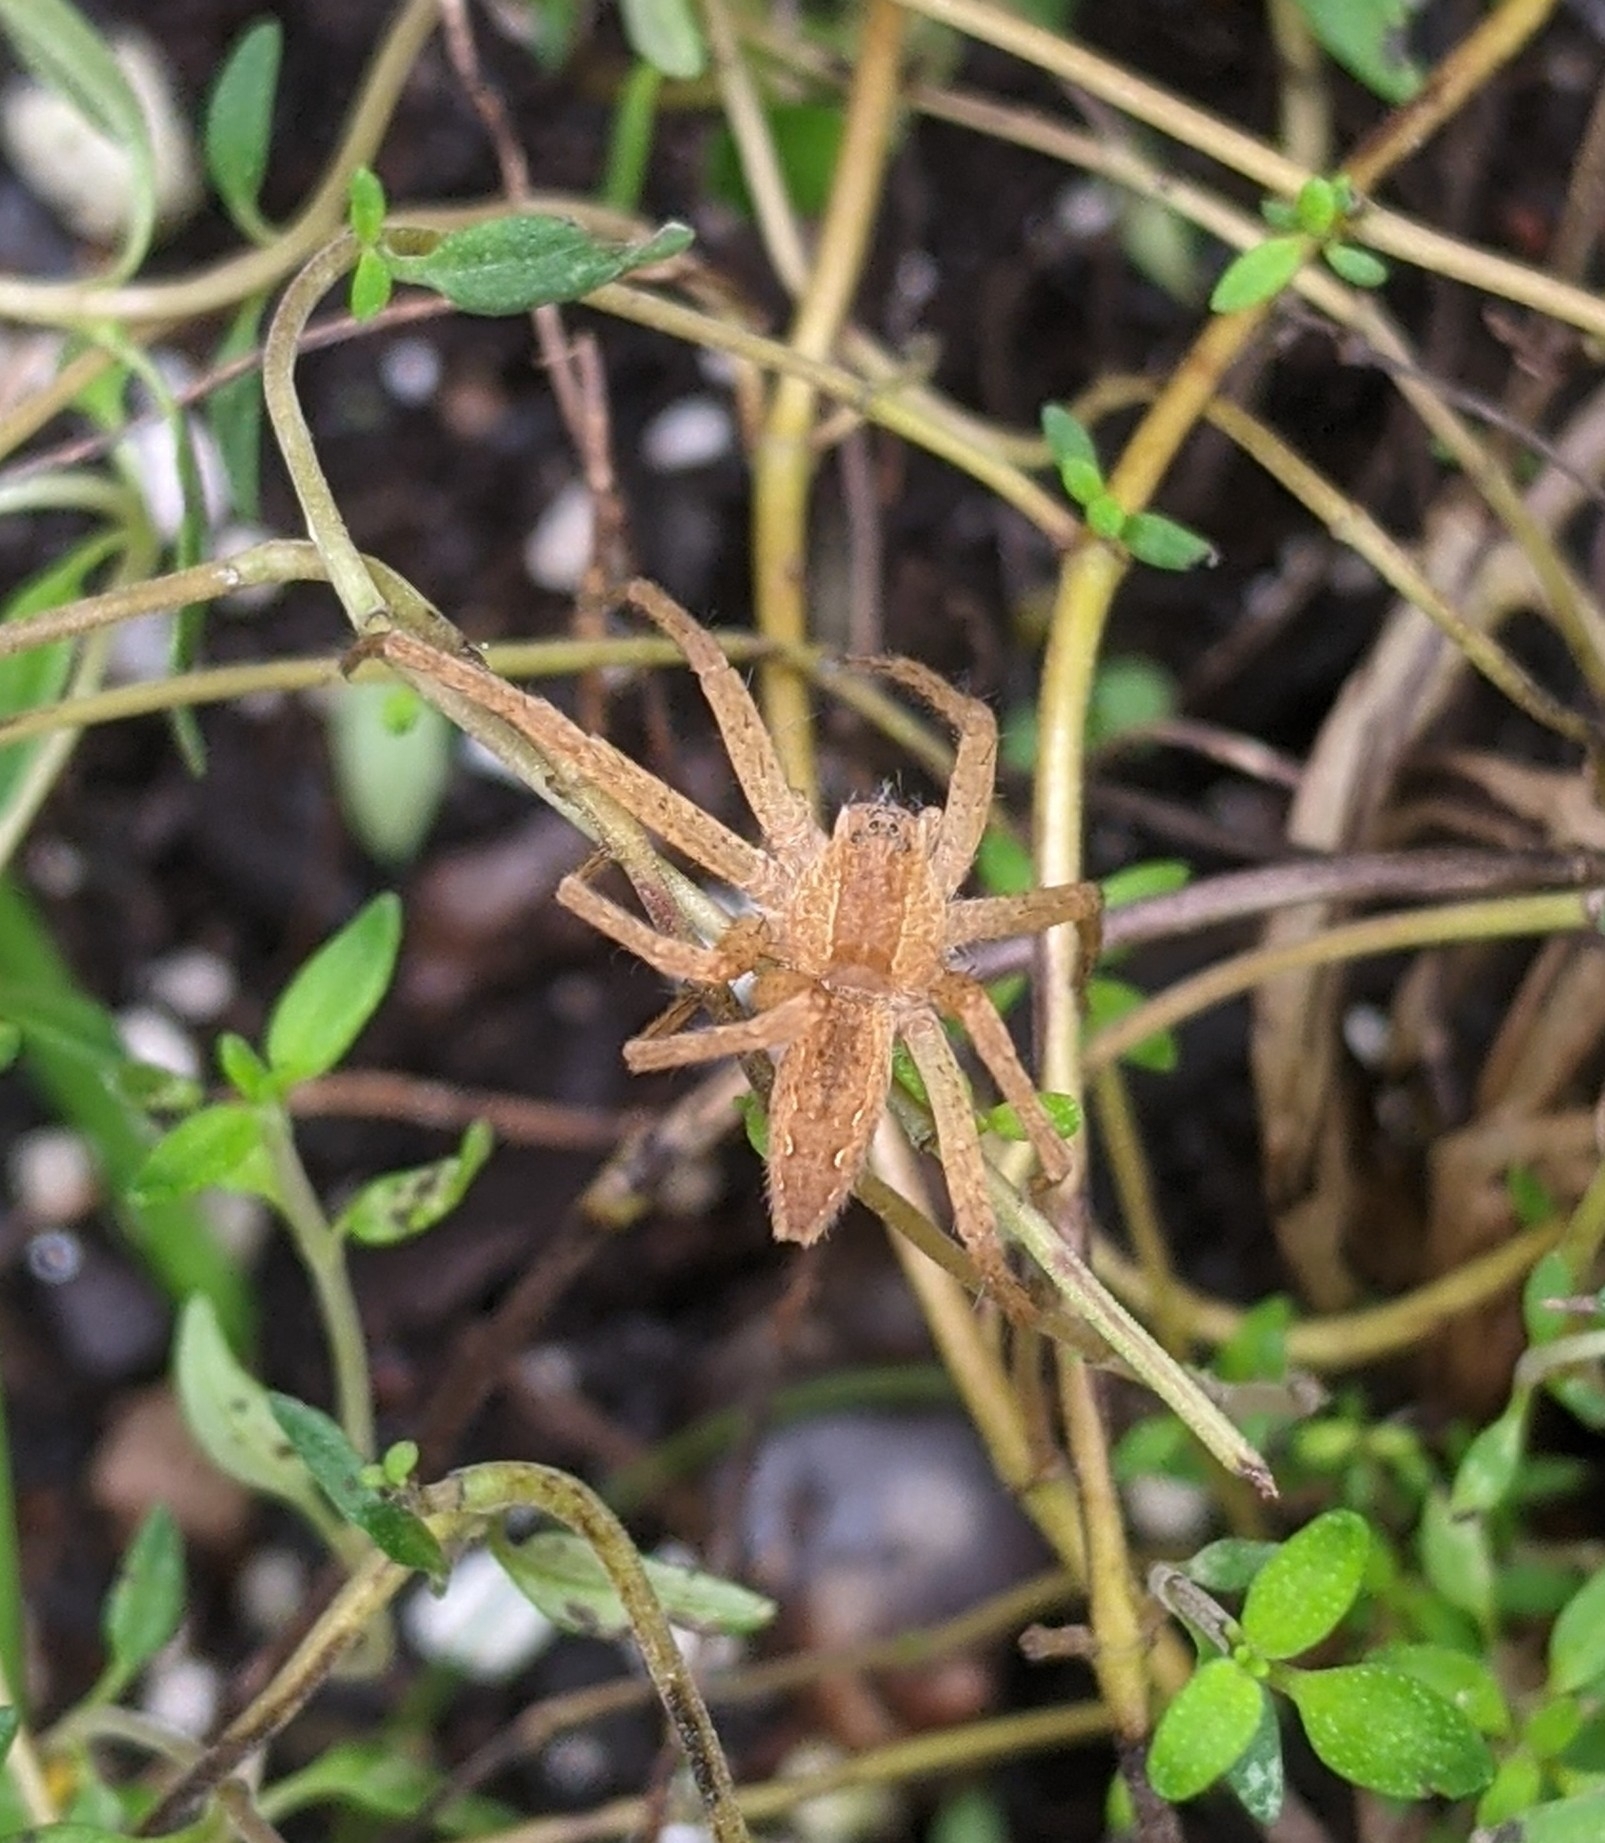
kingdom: Animalia
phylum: Arthropoda
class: Arachnida
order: Araneae
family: Pisauridae
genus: Pisaurina
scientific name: Pisaurina mira
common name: American nursery web spider
